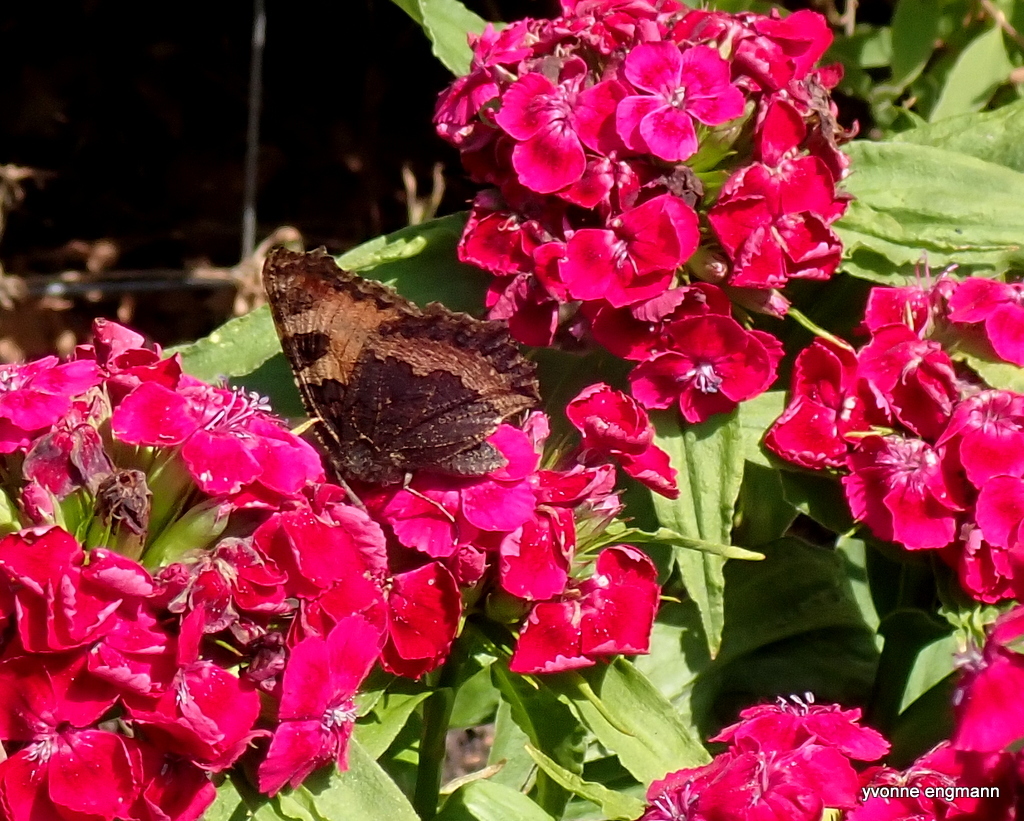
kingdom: Animalia
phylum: Arthropoda
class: Insecta
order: Lepidoptera
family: Nymphalidae
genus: Aglais
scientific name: Aglais urticae
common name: Small tortoiseshell
